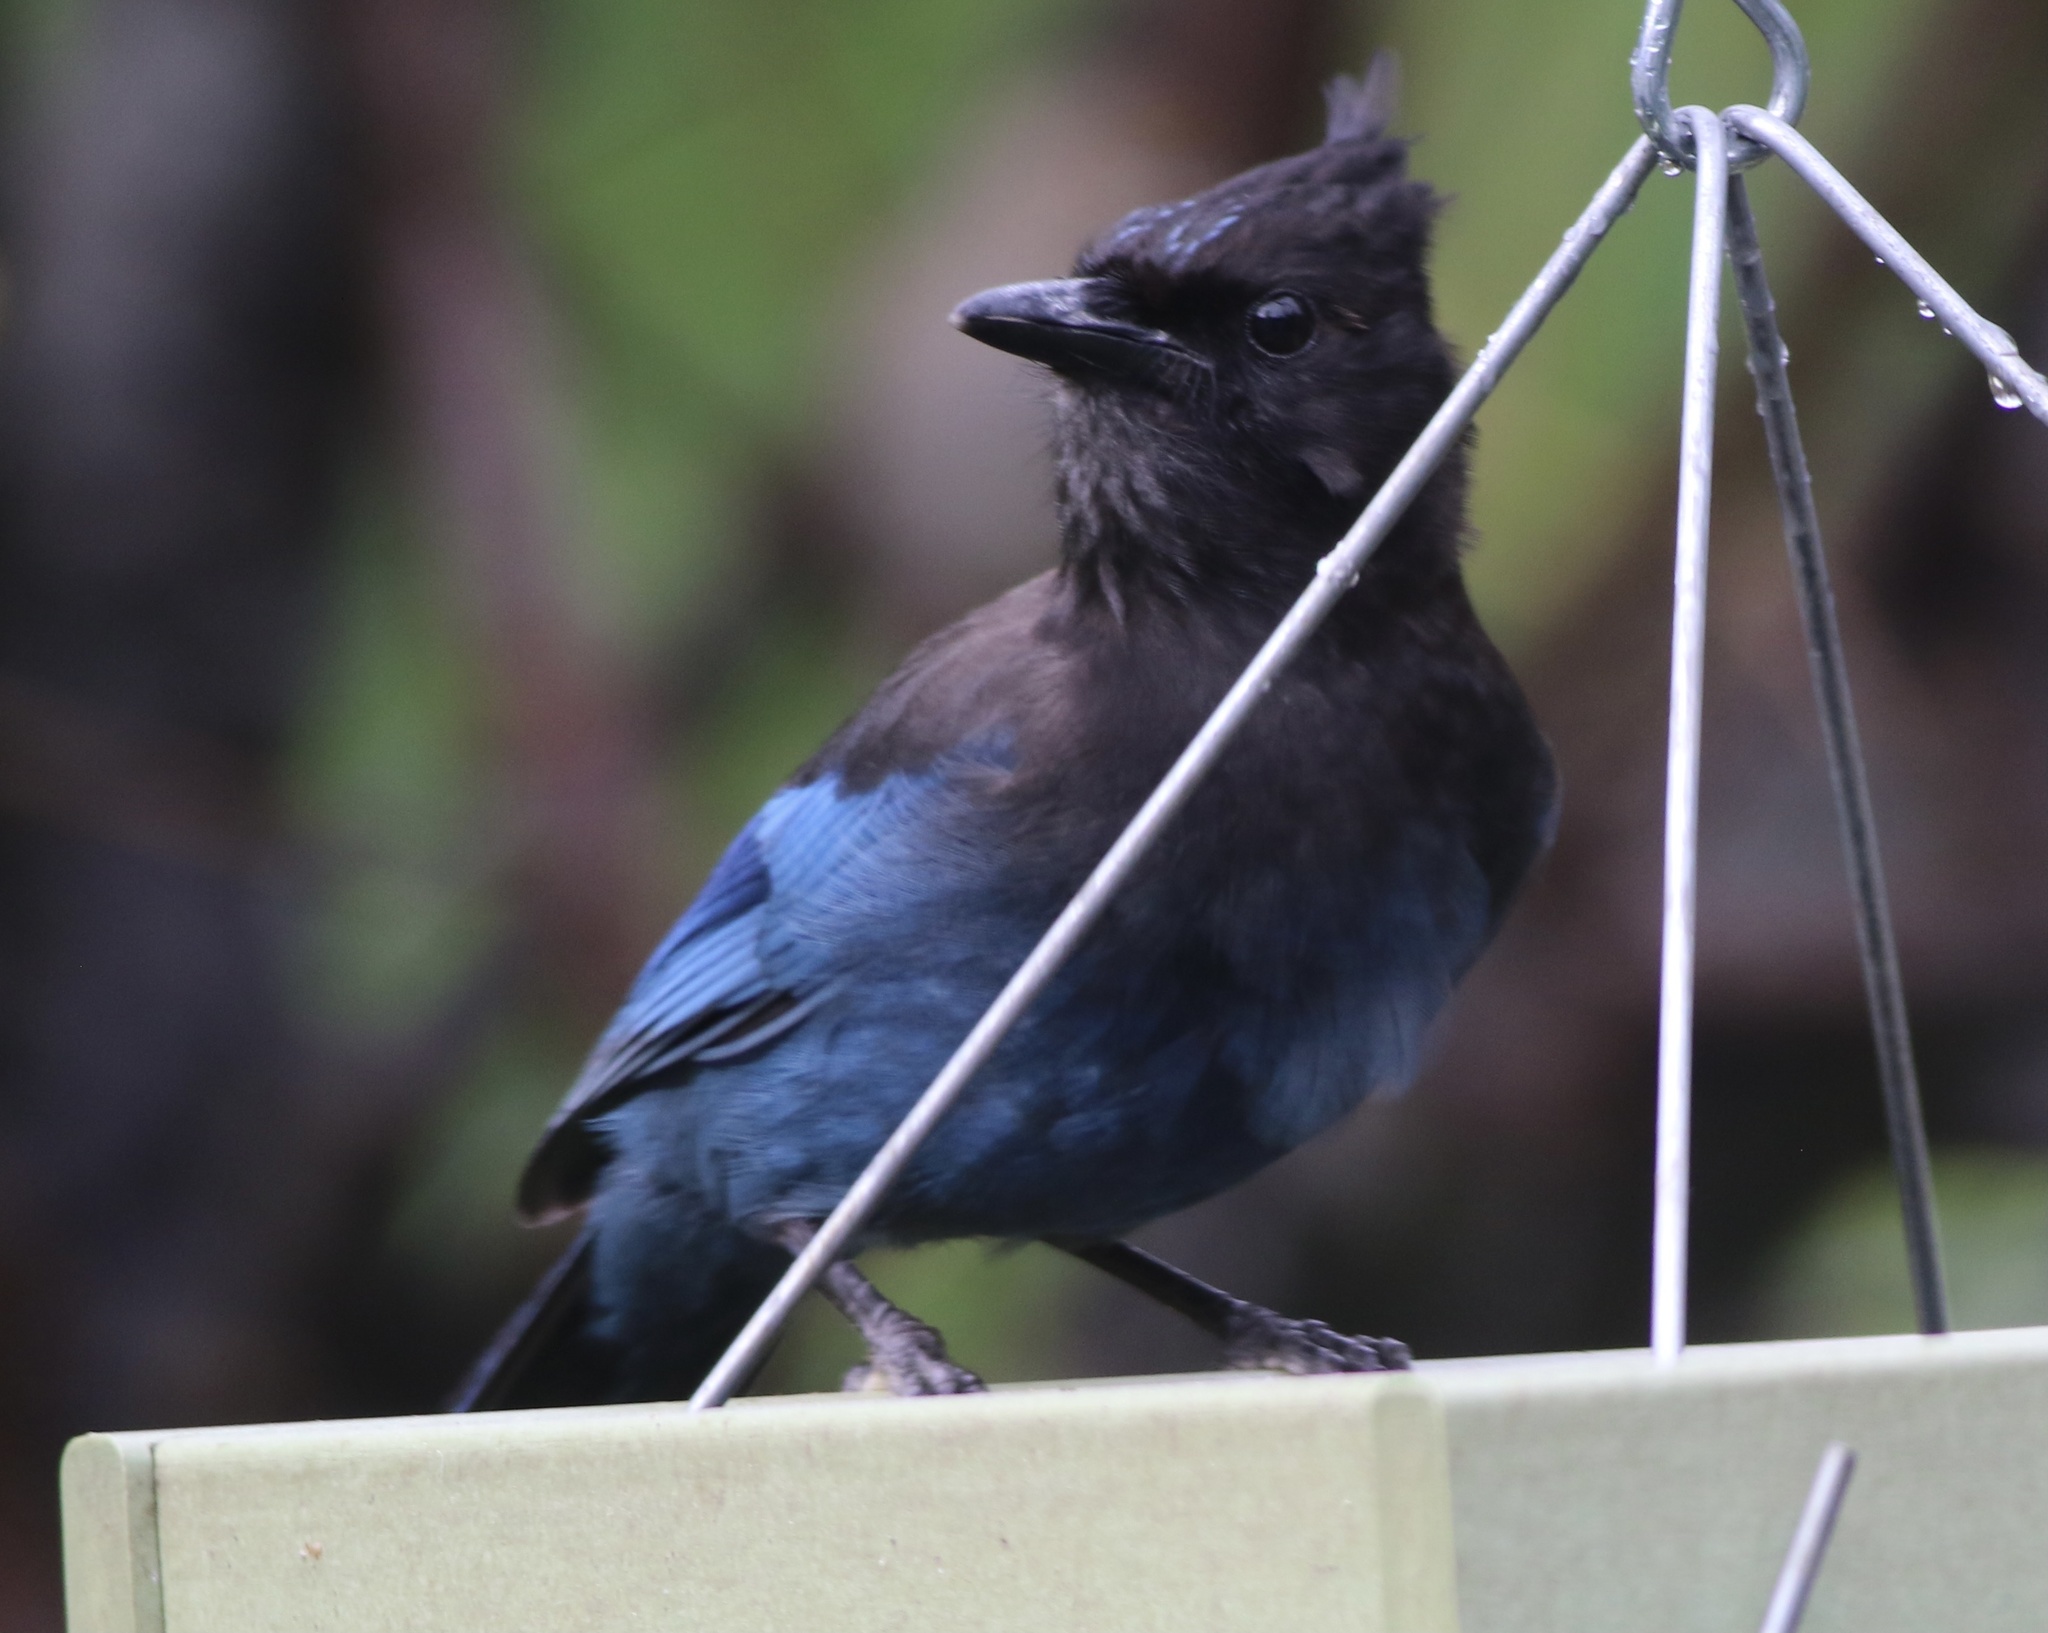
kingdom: Animalia
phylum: Chordata
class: Aves
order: Passeriformes
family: Corvidae
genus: Cyanocitta
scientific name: Cyanocitta stelleri
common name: Steller's jay
